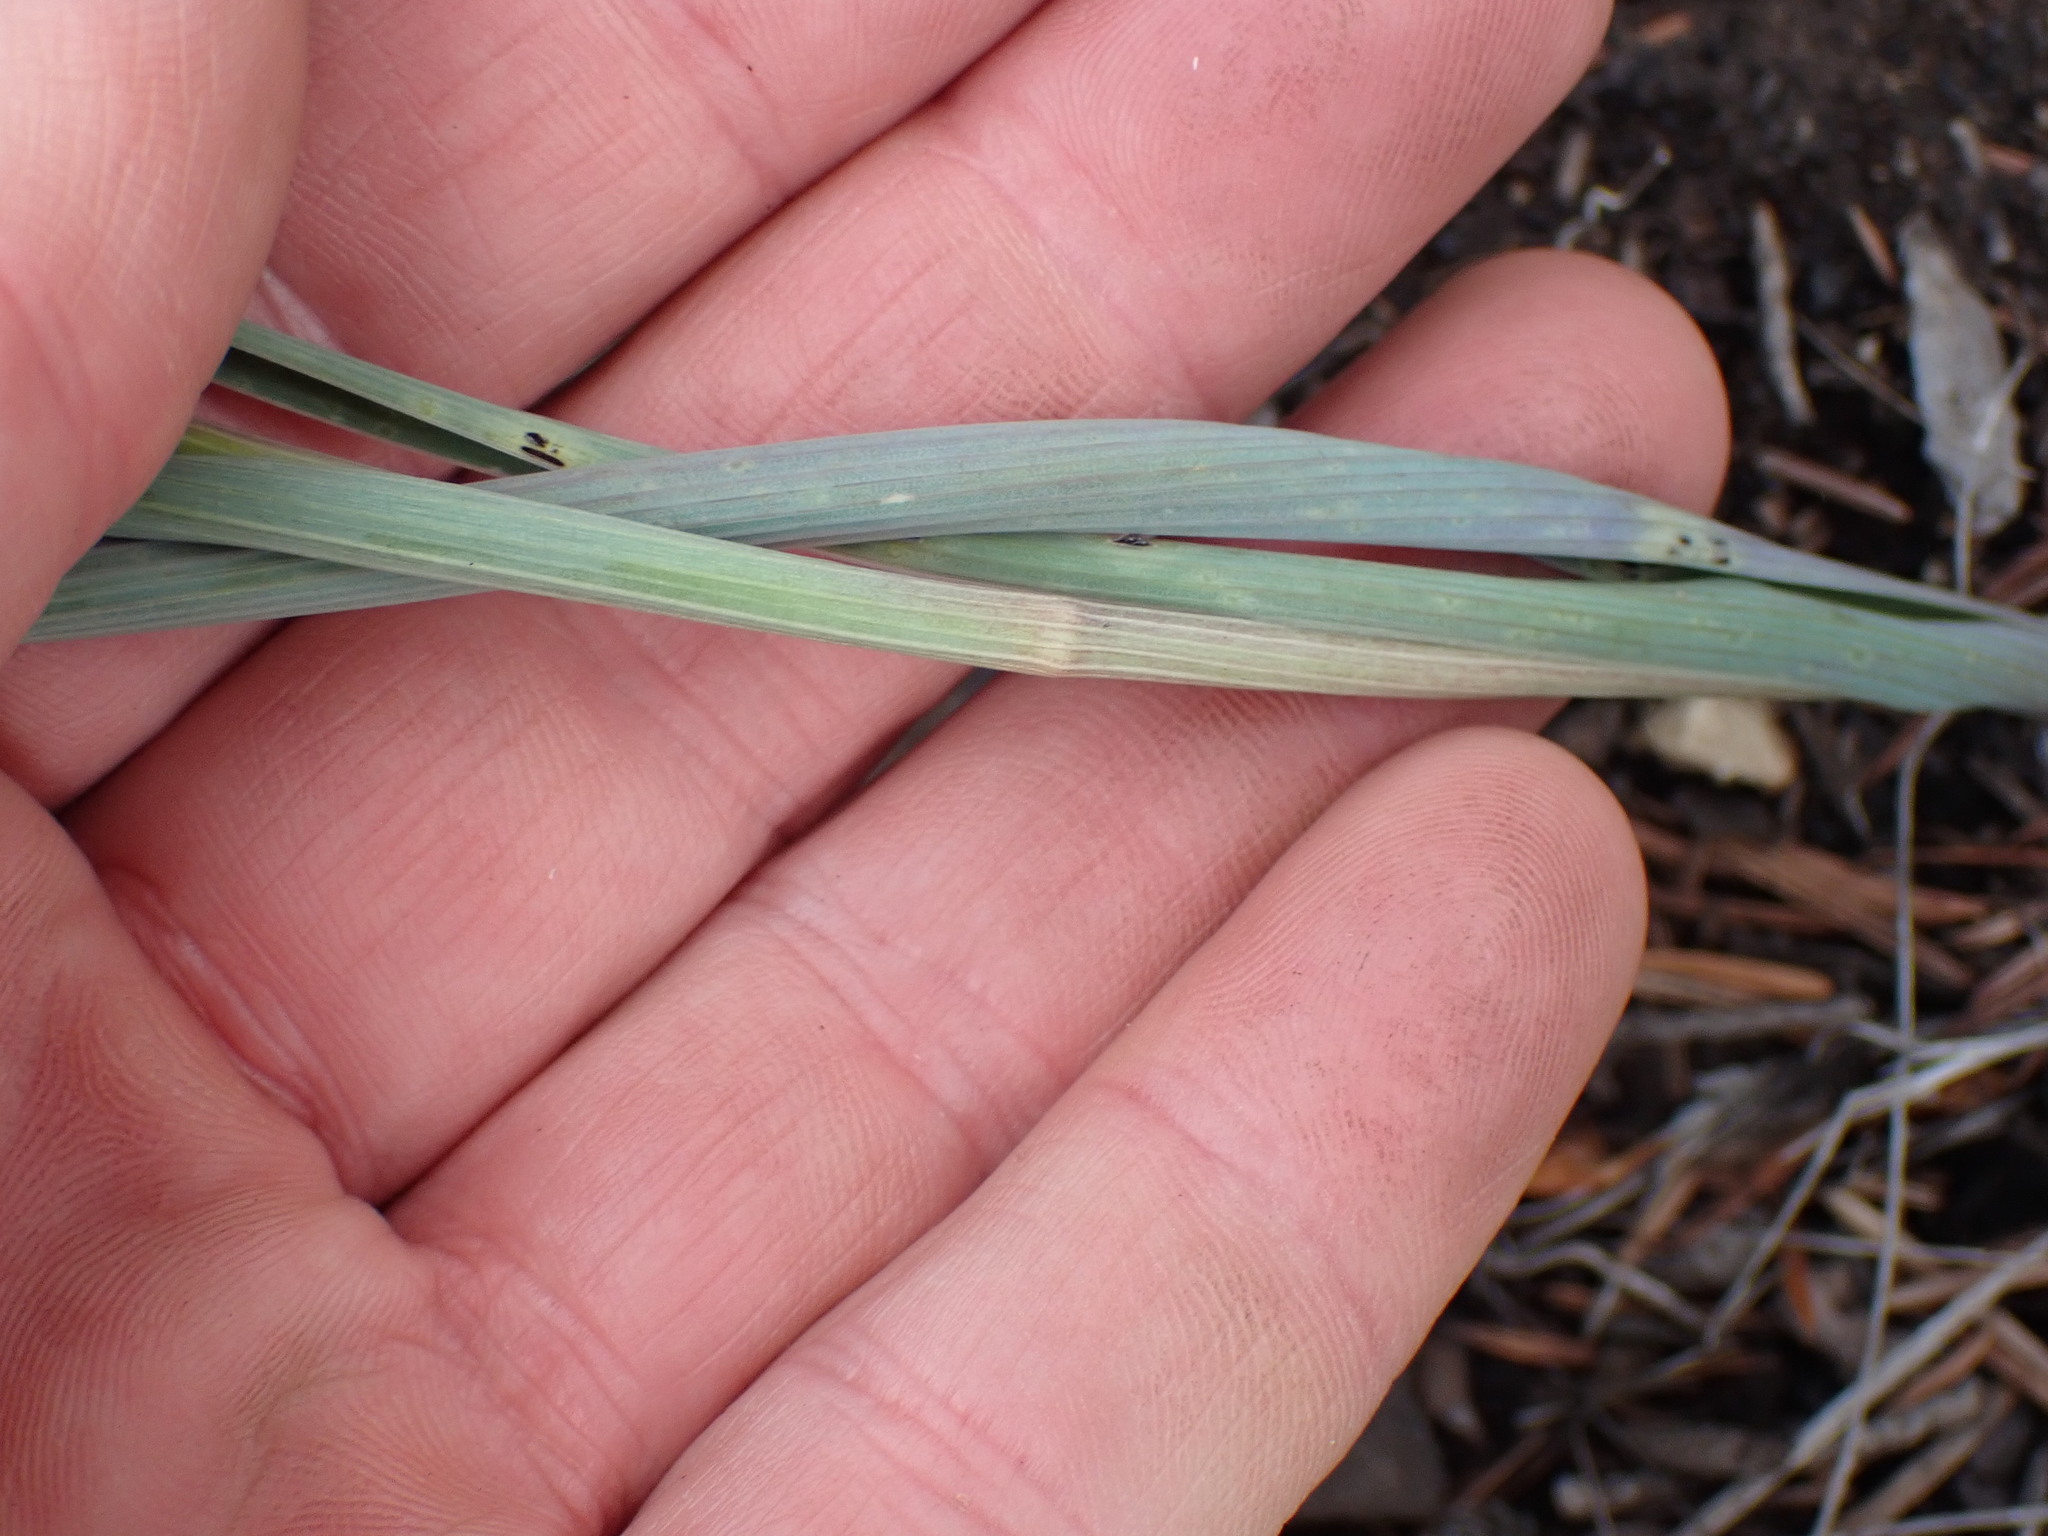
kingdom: Plantae
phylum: Tracheophyta
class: Liliopsida
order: Liliales
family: Liliaceae
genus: Calochortus
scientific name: Calochortus macrocarpus
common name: Green-band mariposa lily
